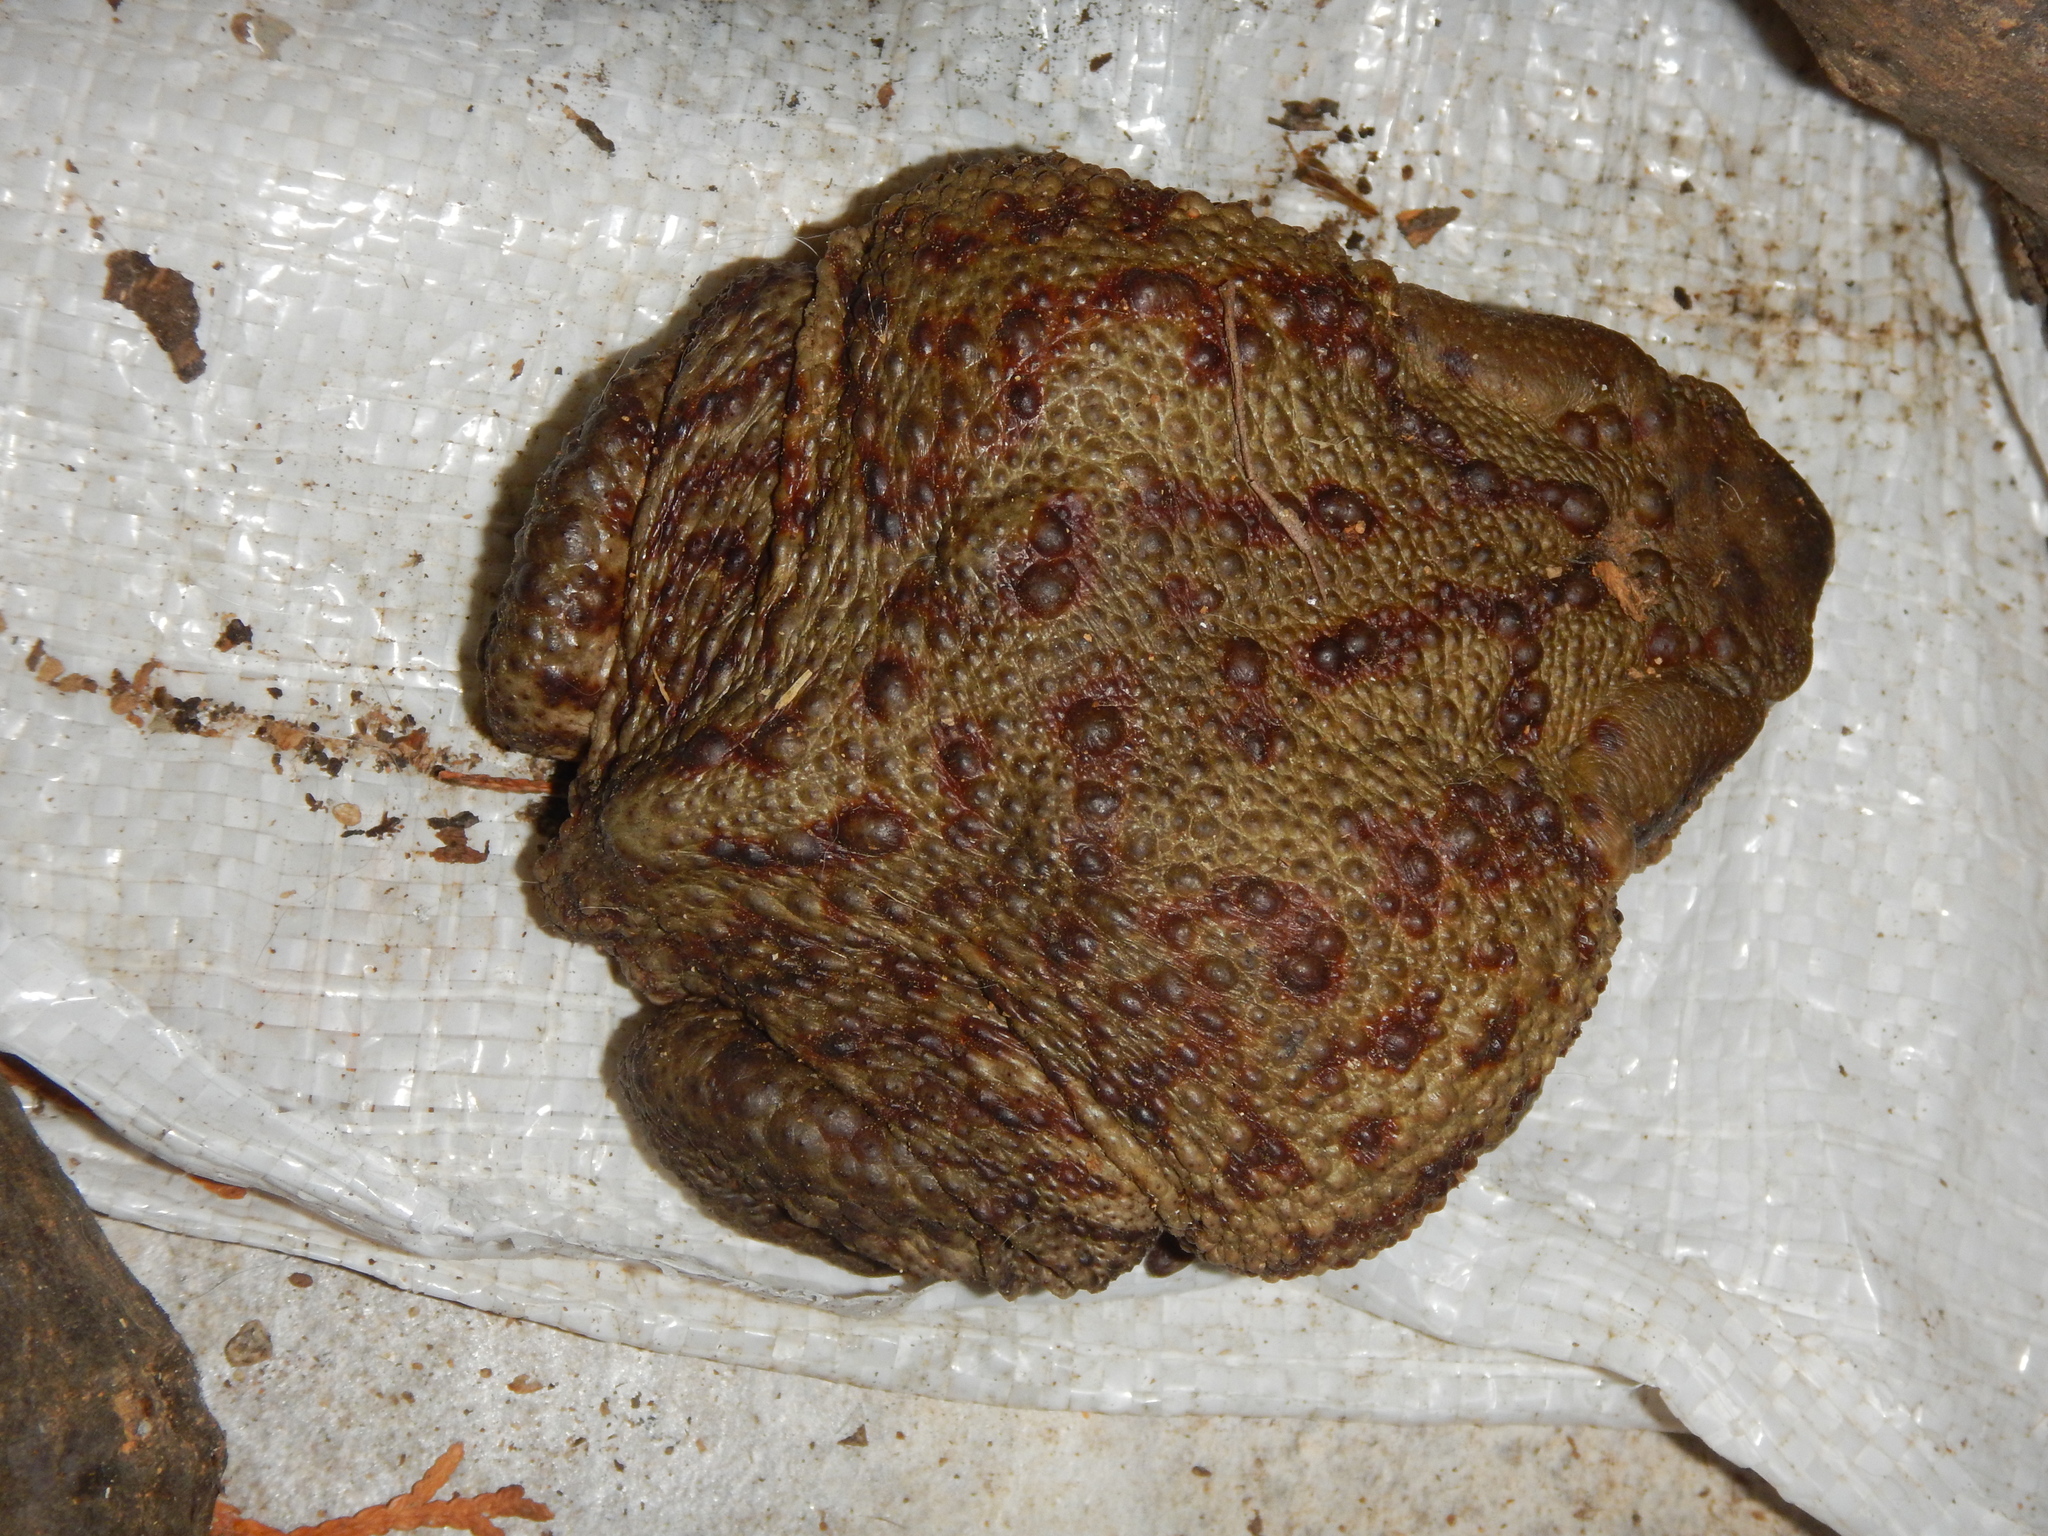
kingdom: Animalia
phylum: Chordata
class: Amphibia
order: Anura
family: Bufonidae
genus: Bufo
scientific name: Bufo bufo
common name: Common toad
